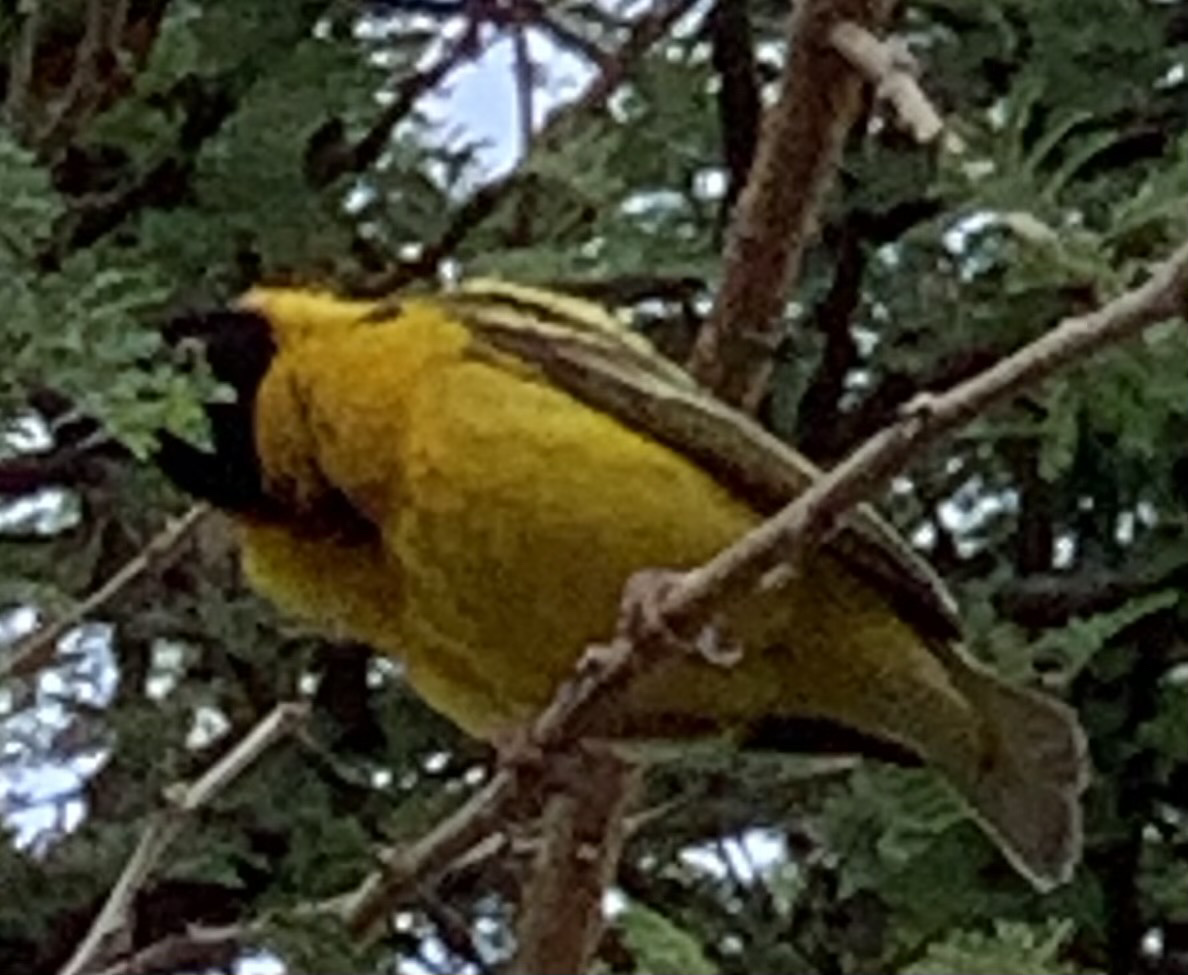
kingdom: Animalia
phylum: Chordata
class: Aves
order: Passeriformes
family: Ploceidae
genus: Ploceus
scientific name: Ploceus cucullatus
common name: Village weaver
